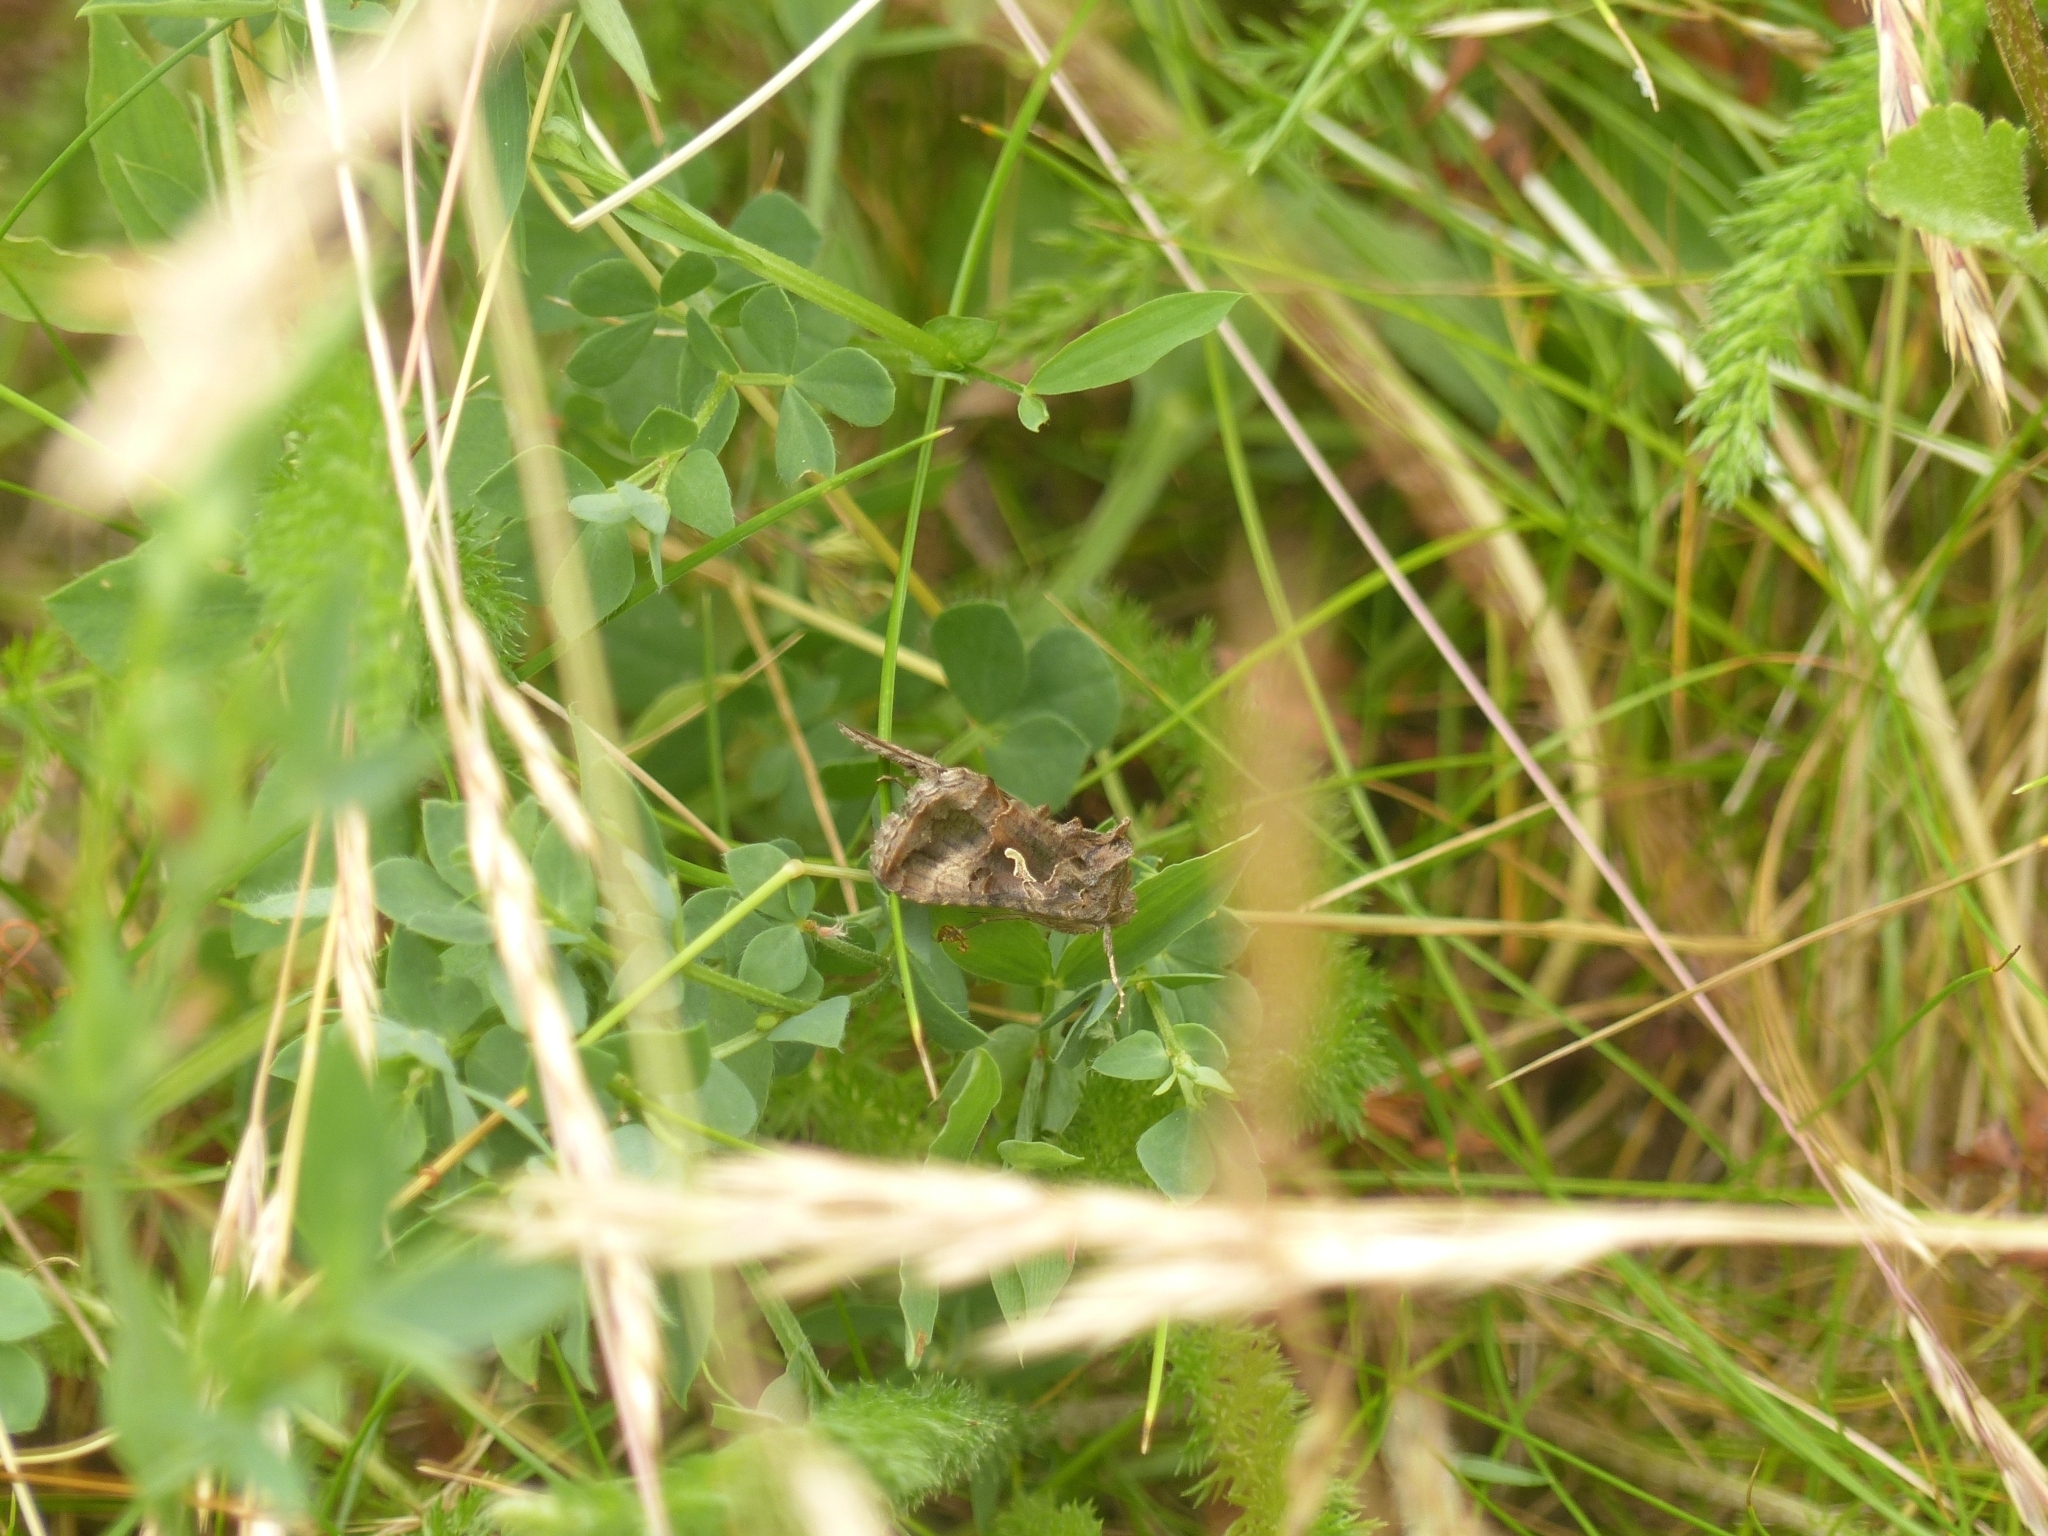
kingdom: Animalia
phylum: Arthropoda
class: Insecta
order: Lepidoptera
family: Noctuidae
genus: Autographa
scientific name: Autographa gamma
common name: Silver y
